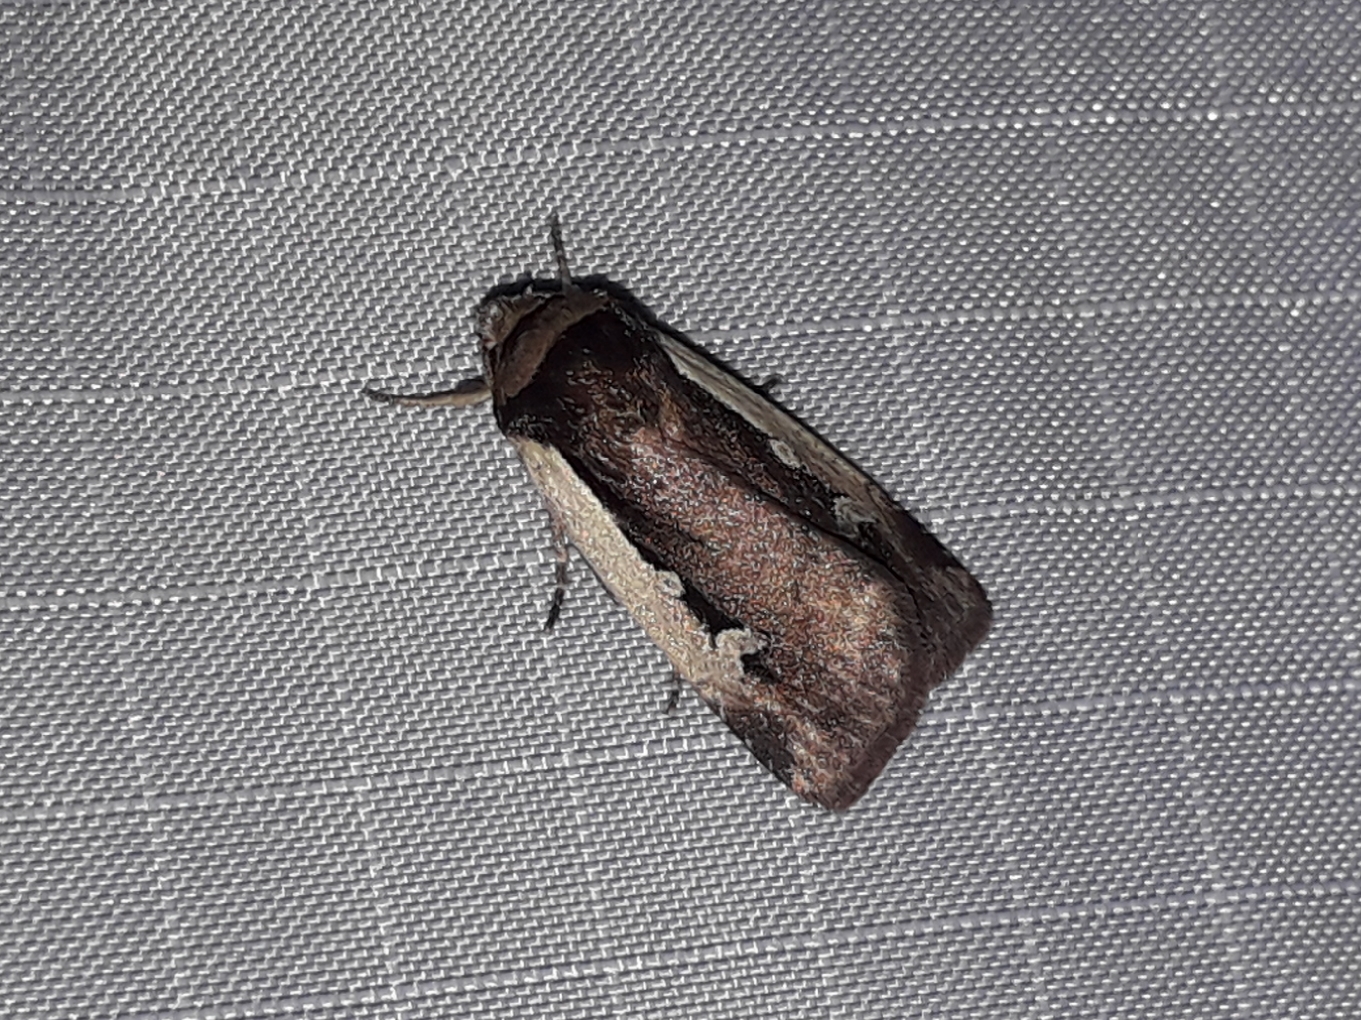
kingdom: Animalia
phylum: Arthropoda
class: Insecta
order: Lepidoptera
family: Noctuidae
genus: Ochropleura
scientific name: Ochropleura plecta
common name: Flame shoulder
